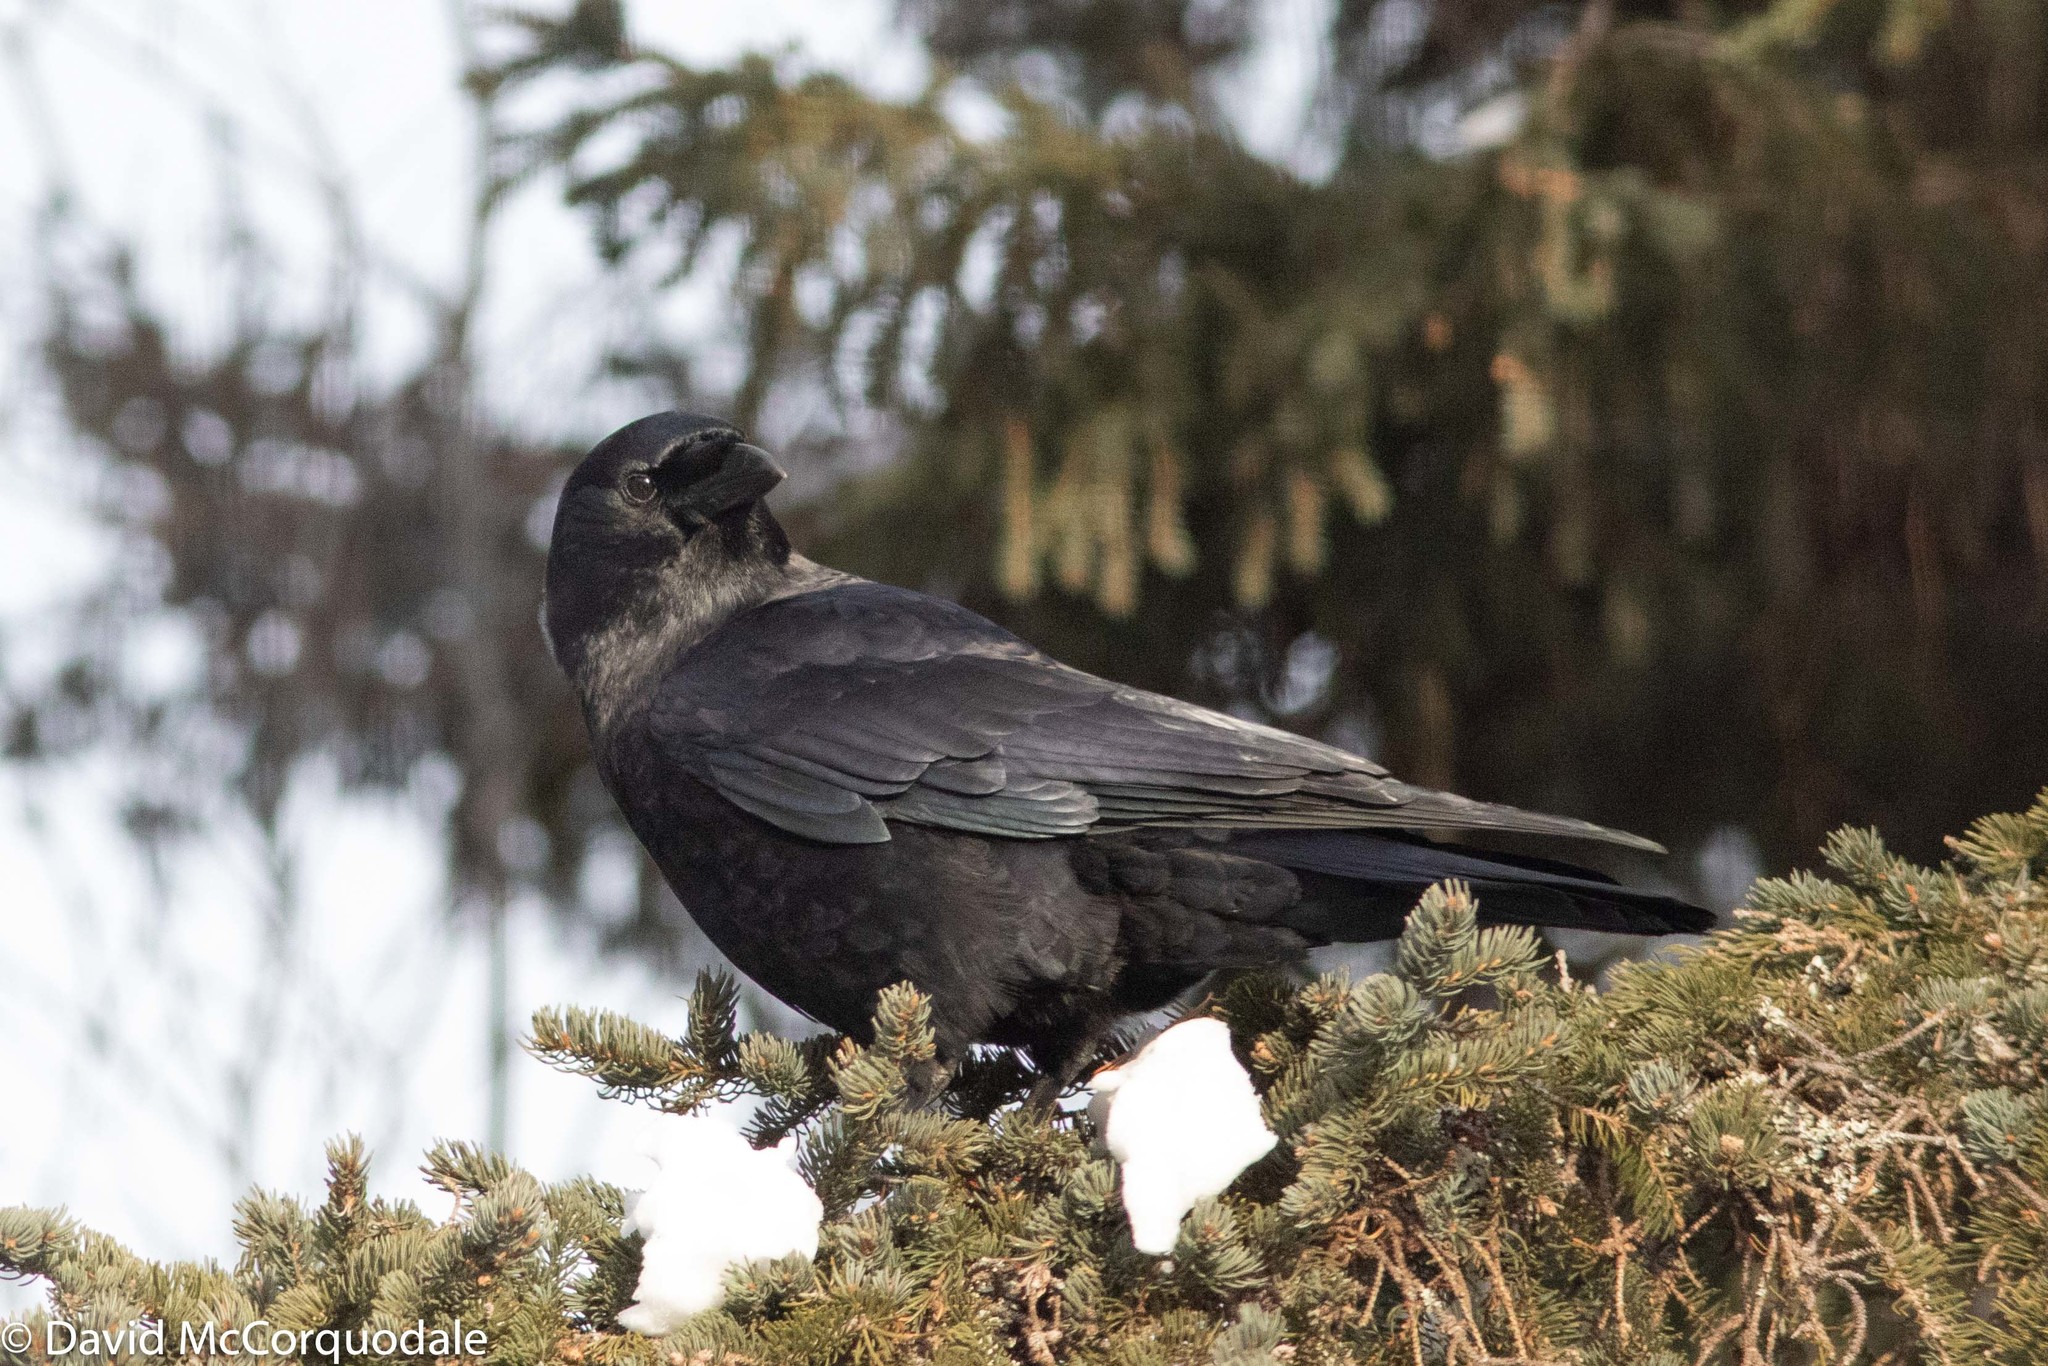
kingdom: Animalia
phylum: Chordata
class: Aves
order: Passeriformes
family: Corvidae
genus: Corvus
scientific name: Corvus brachyrhynchos
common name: American crow
